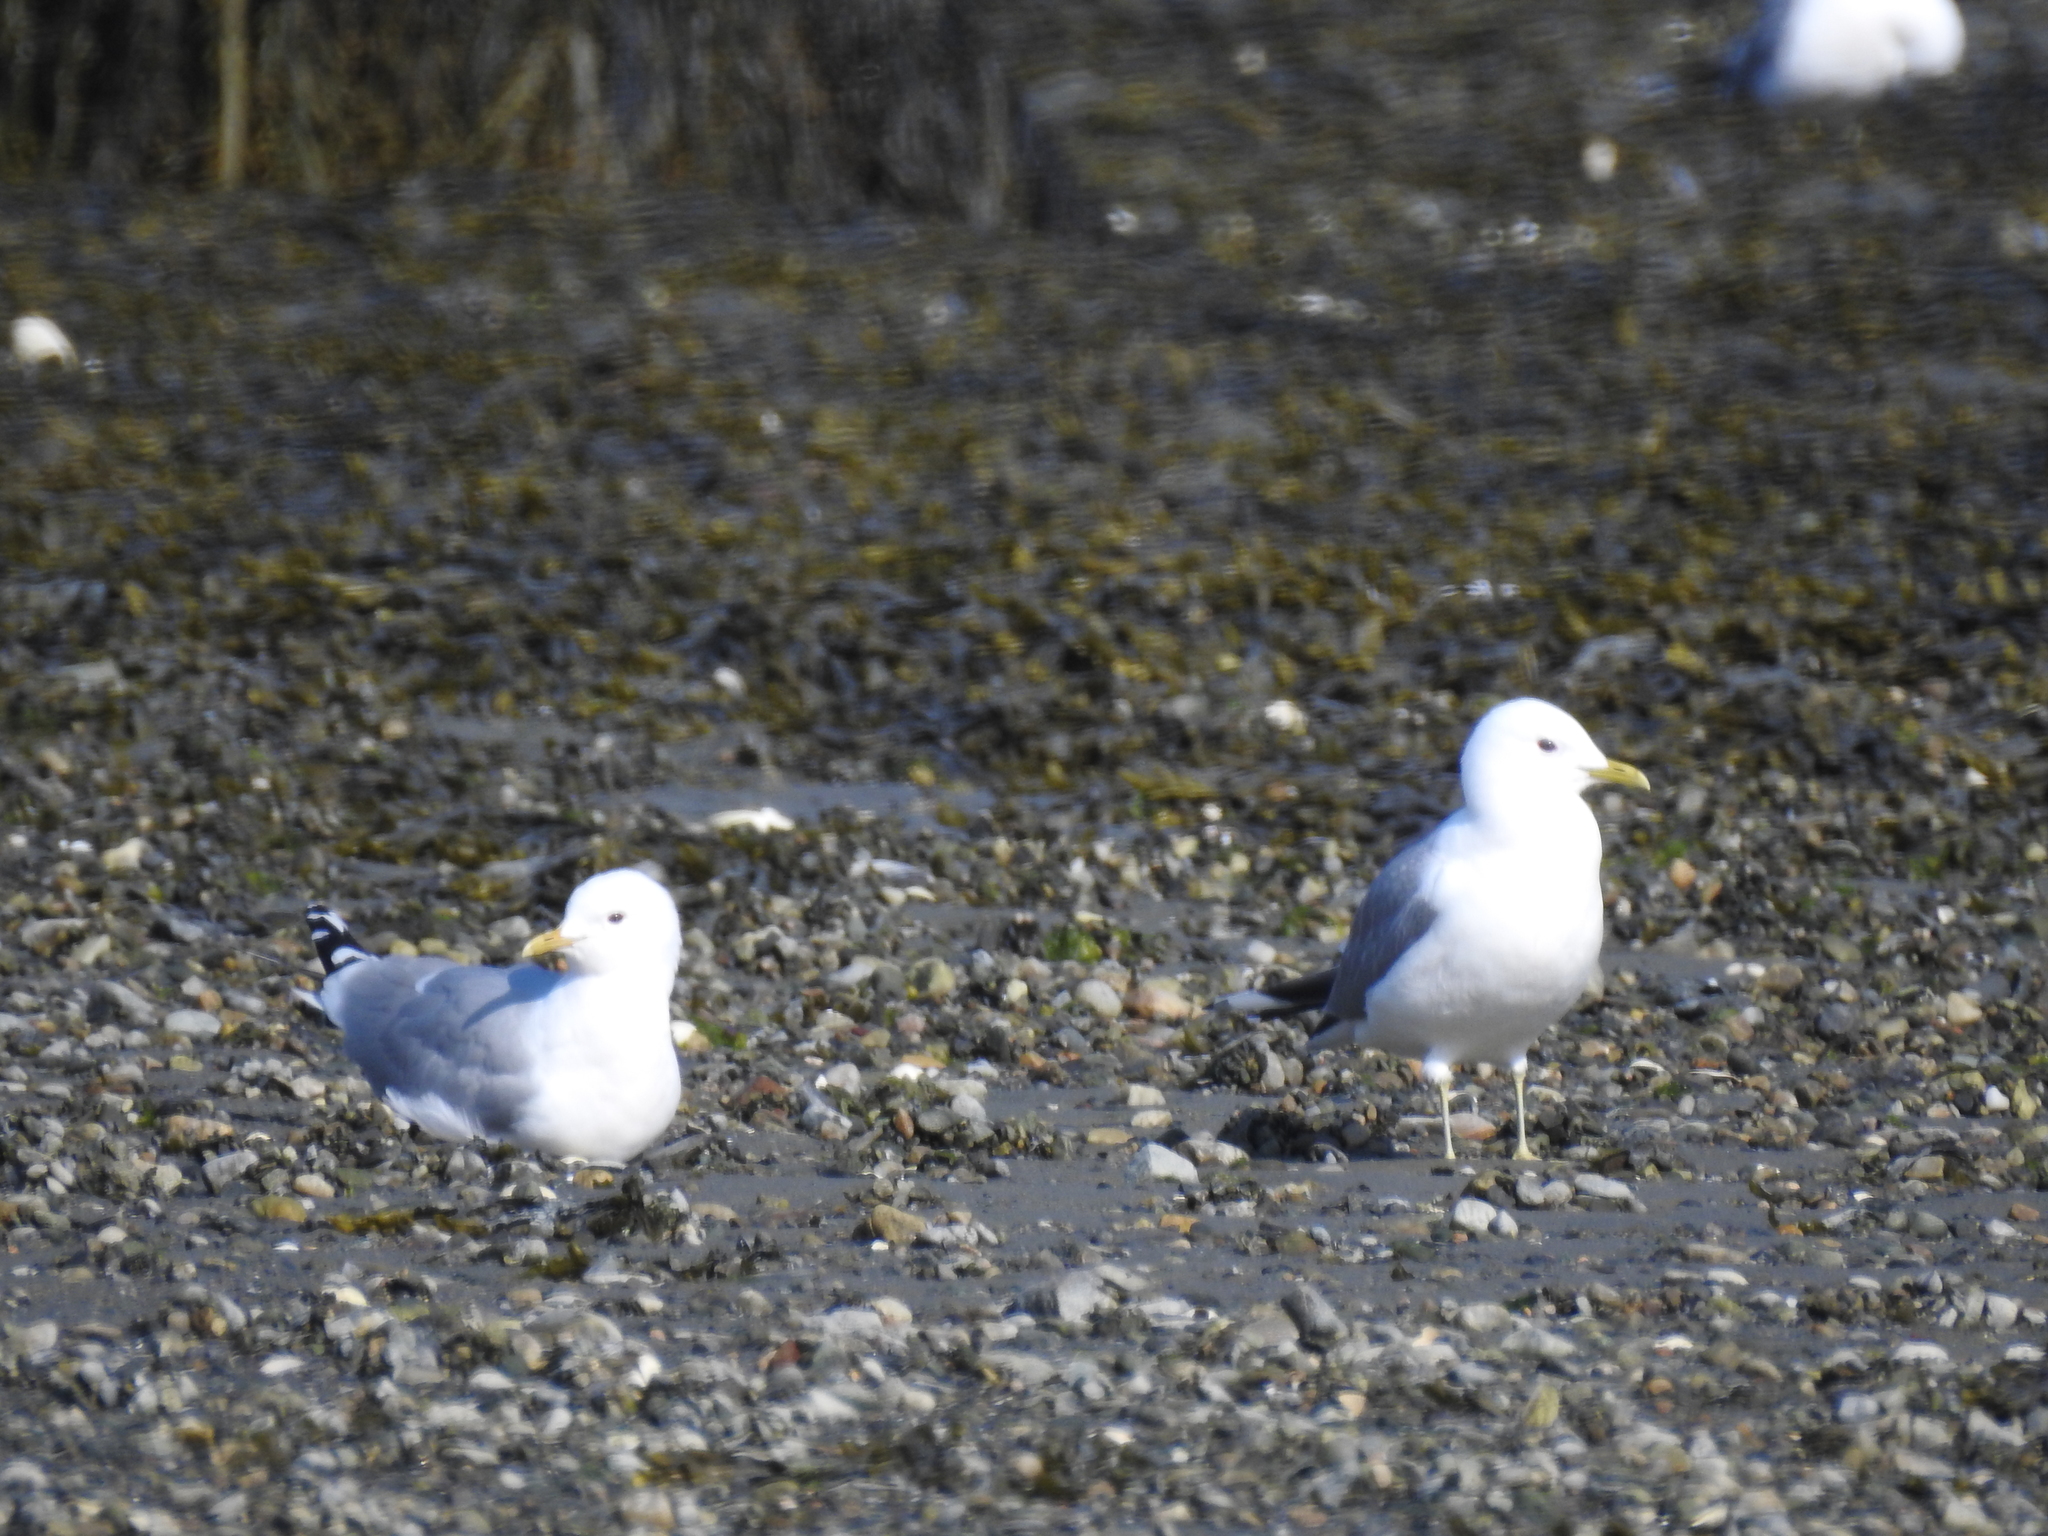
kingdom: Animalia
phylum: Chordata
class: Aves
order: Charadriiformes
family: Laridae
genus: Larus
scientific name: Larus canus
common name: Mew gull
